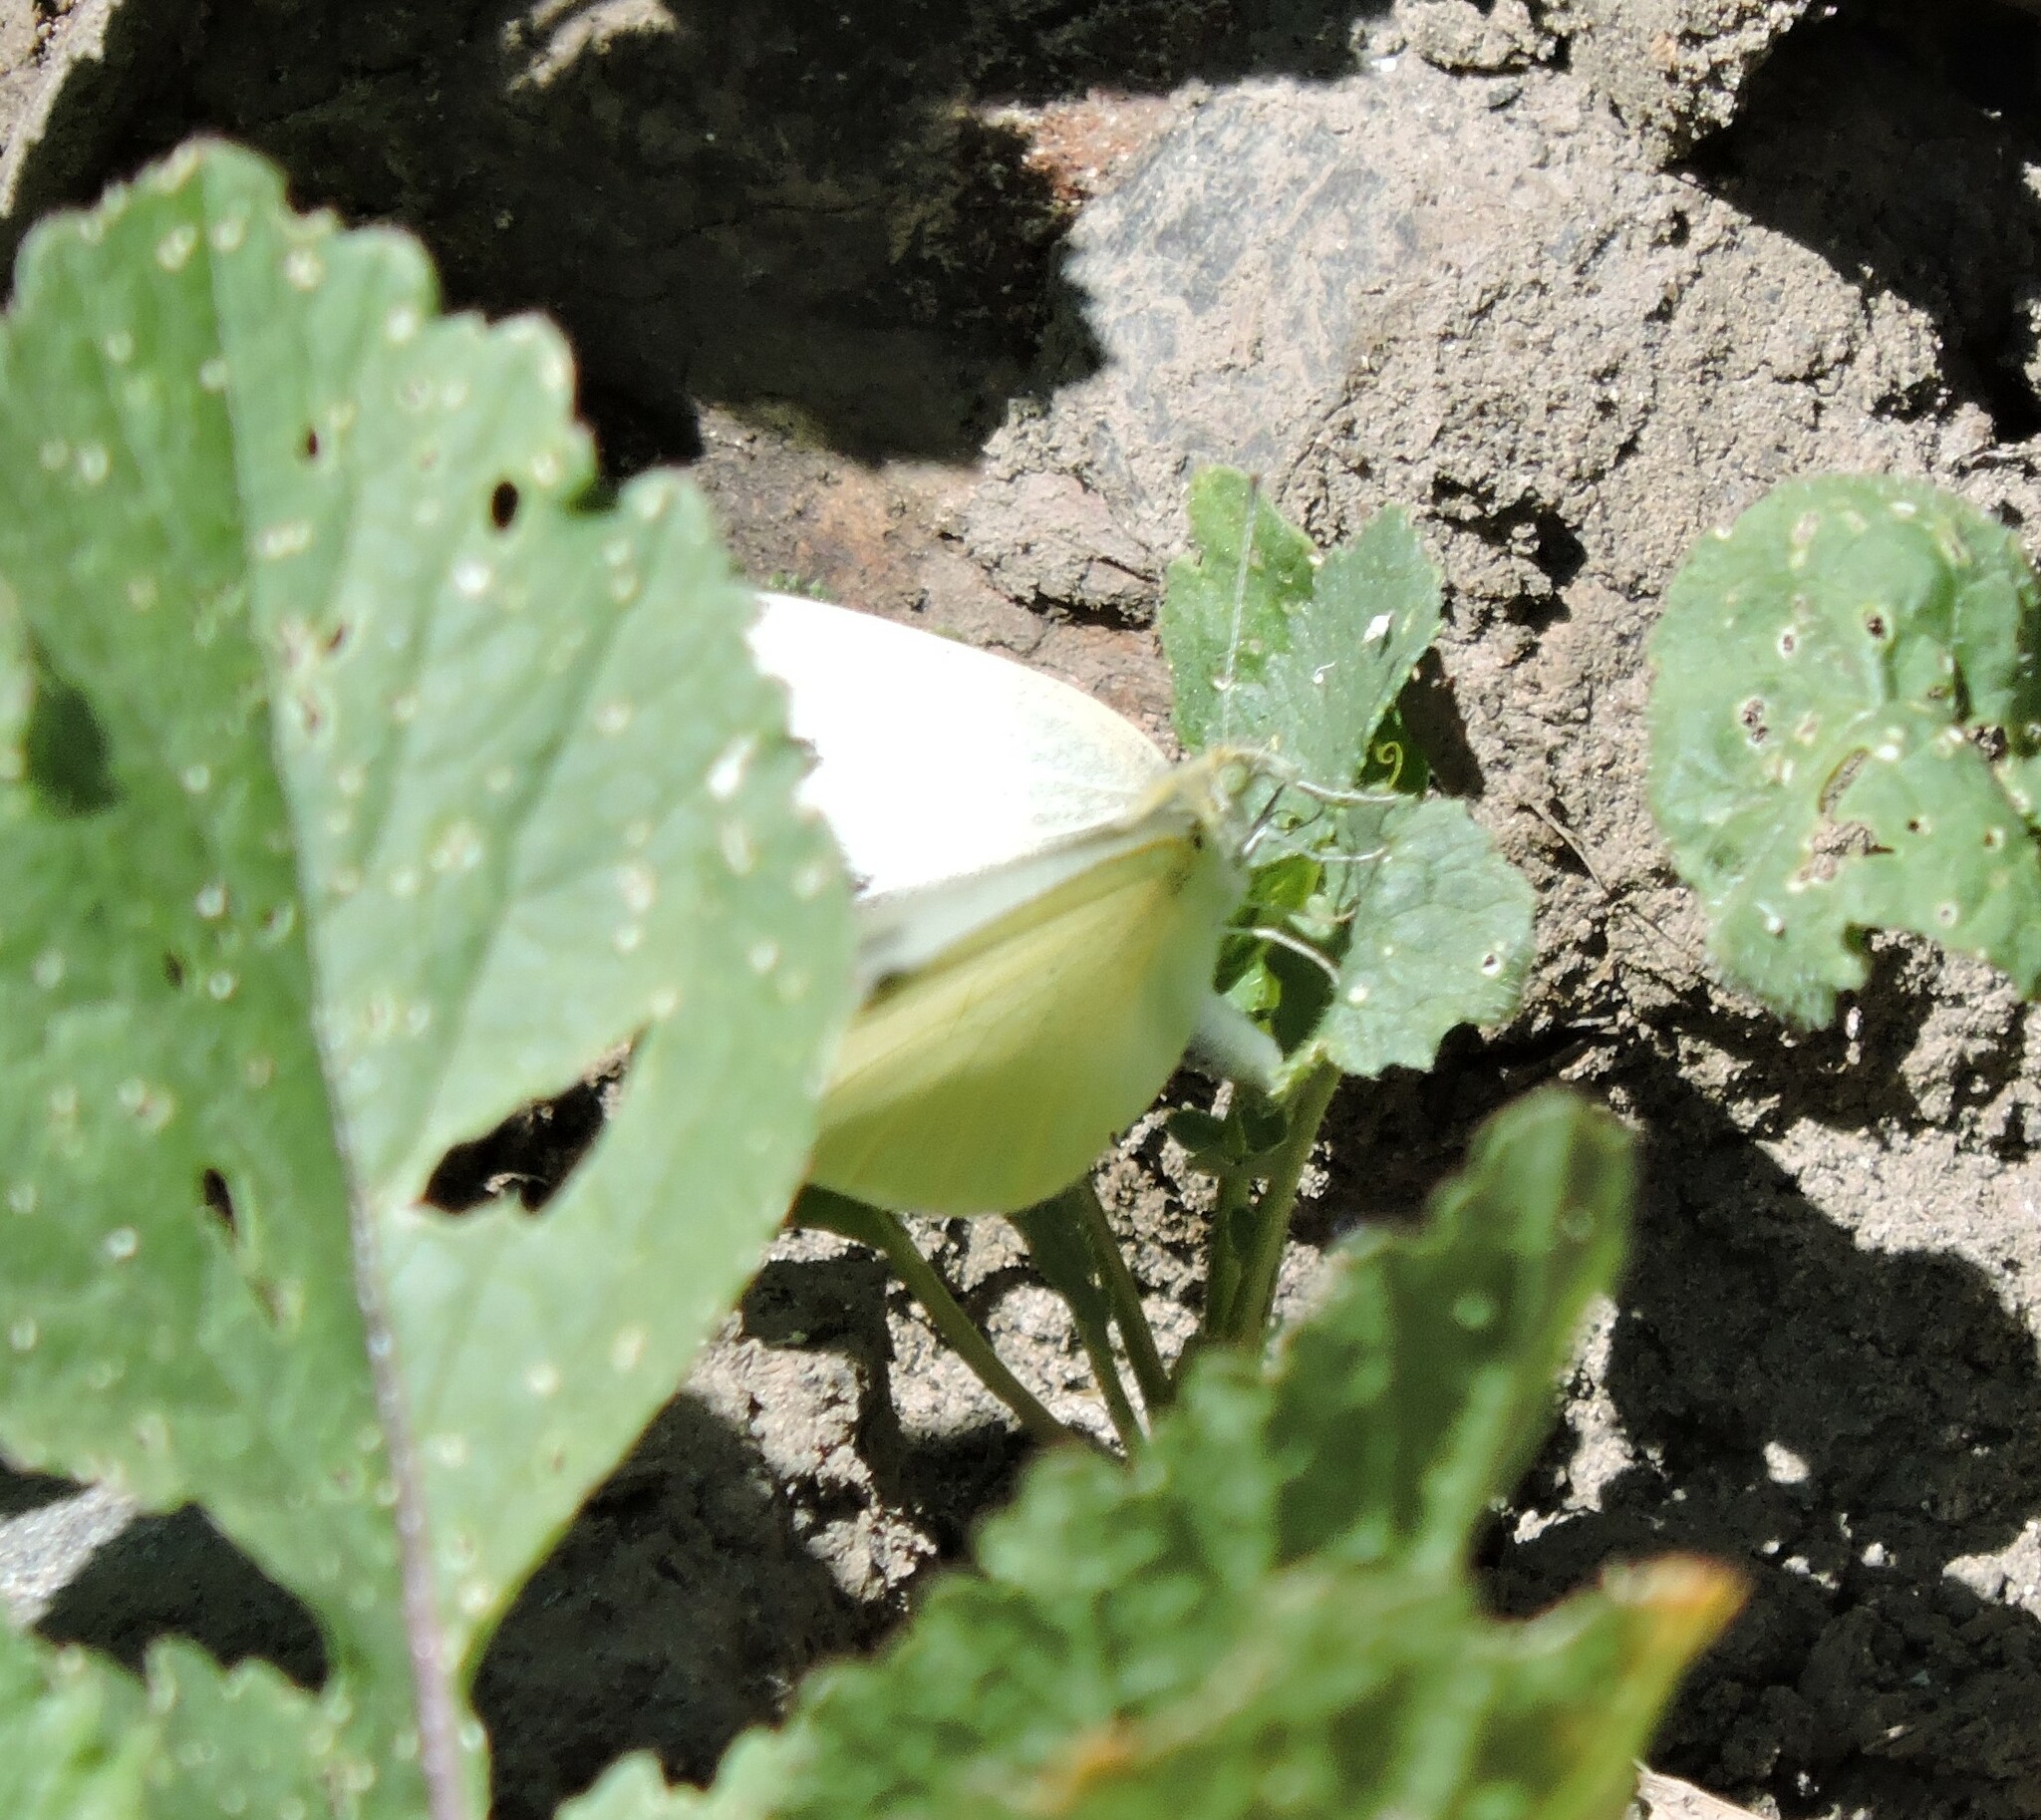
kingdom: Animalia
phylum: Arthropoda
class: Insecta
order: Lepidoptera
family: Pieridae
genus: Pieris
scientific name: Pieris rapae
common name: Small white
